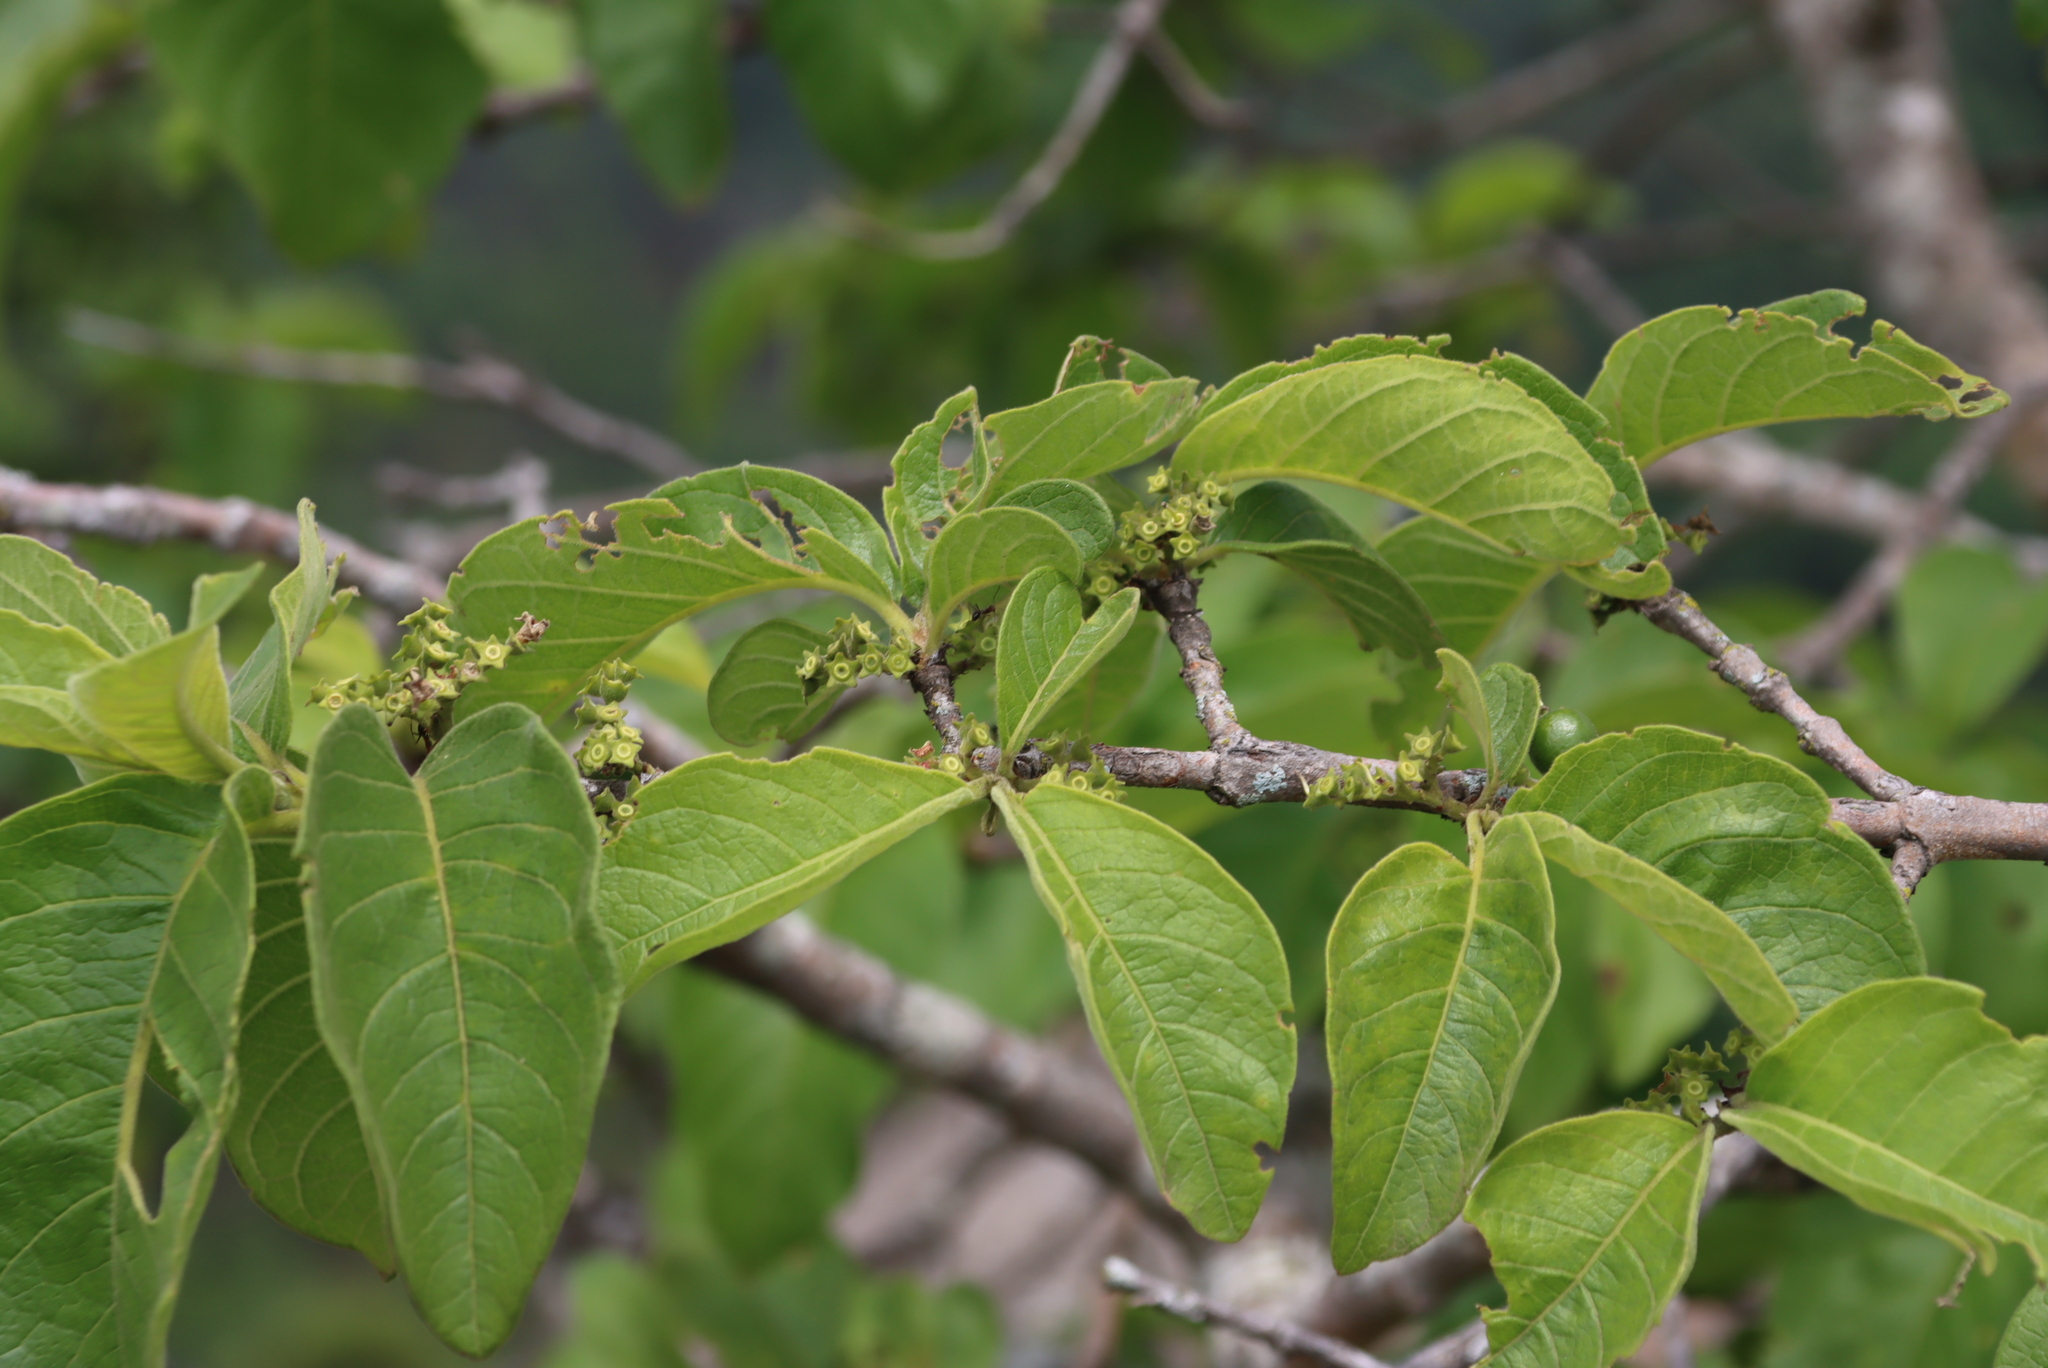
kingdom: Plantae
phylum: Tracheophyta
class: Magnoliopsida
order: Gentianales
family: Rubiaceae
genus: Vangueria
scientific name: Vangueria infausta
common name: Medlar
